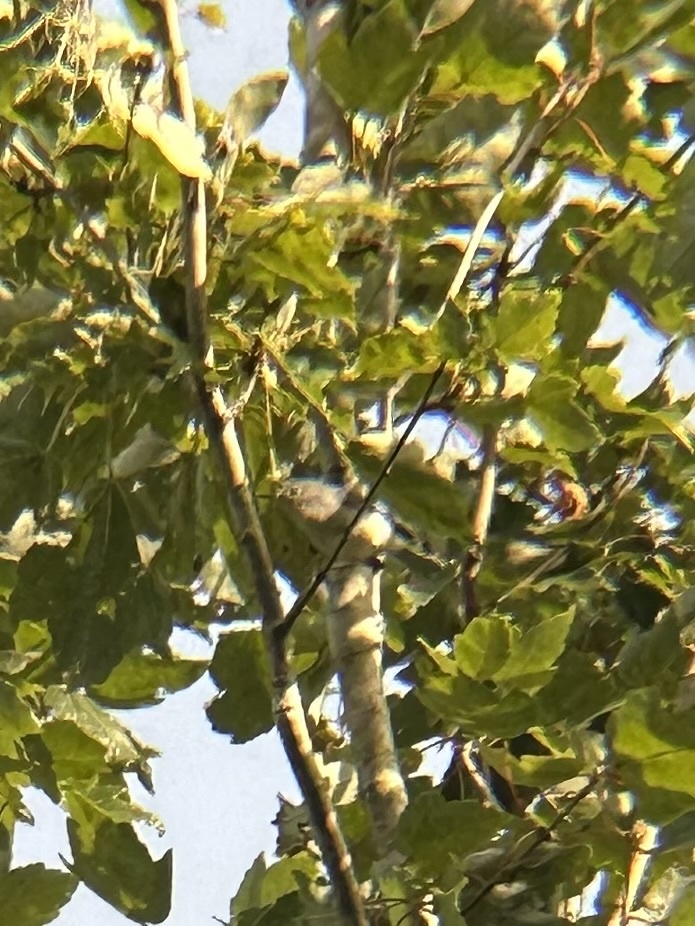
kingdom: Animalia
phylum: Chordata
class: Aves
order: Passeriformes
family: Polioptilidae
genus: Polioptila
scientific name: Polioptila caerulea
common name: Blue-gray gnatcatcher
